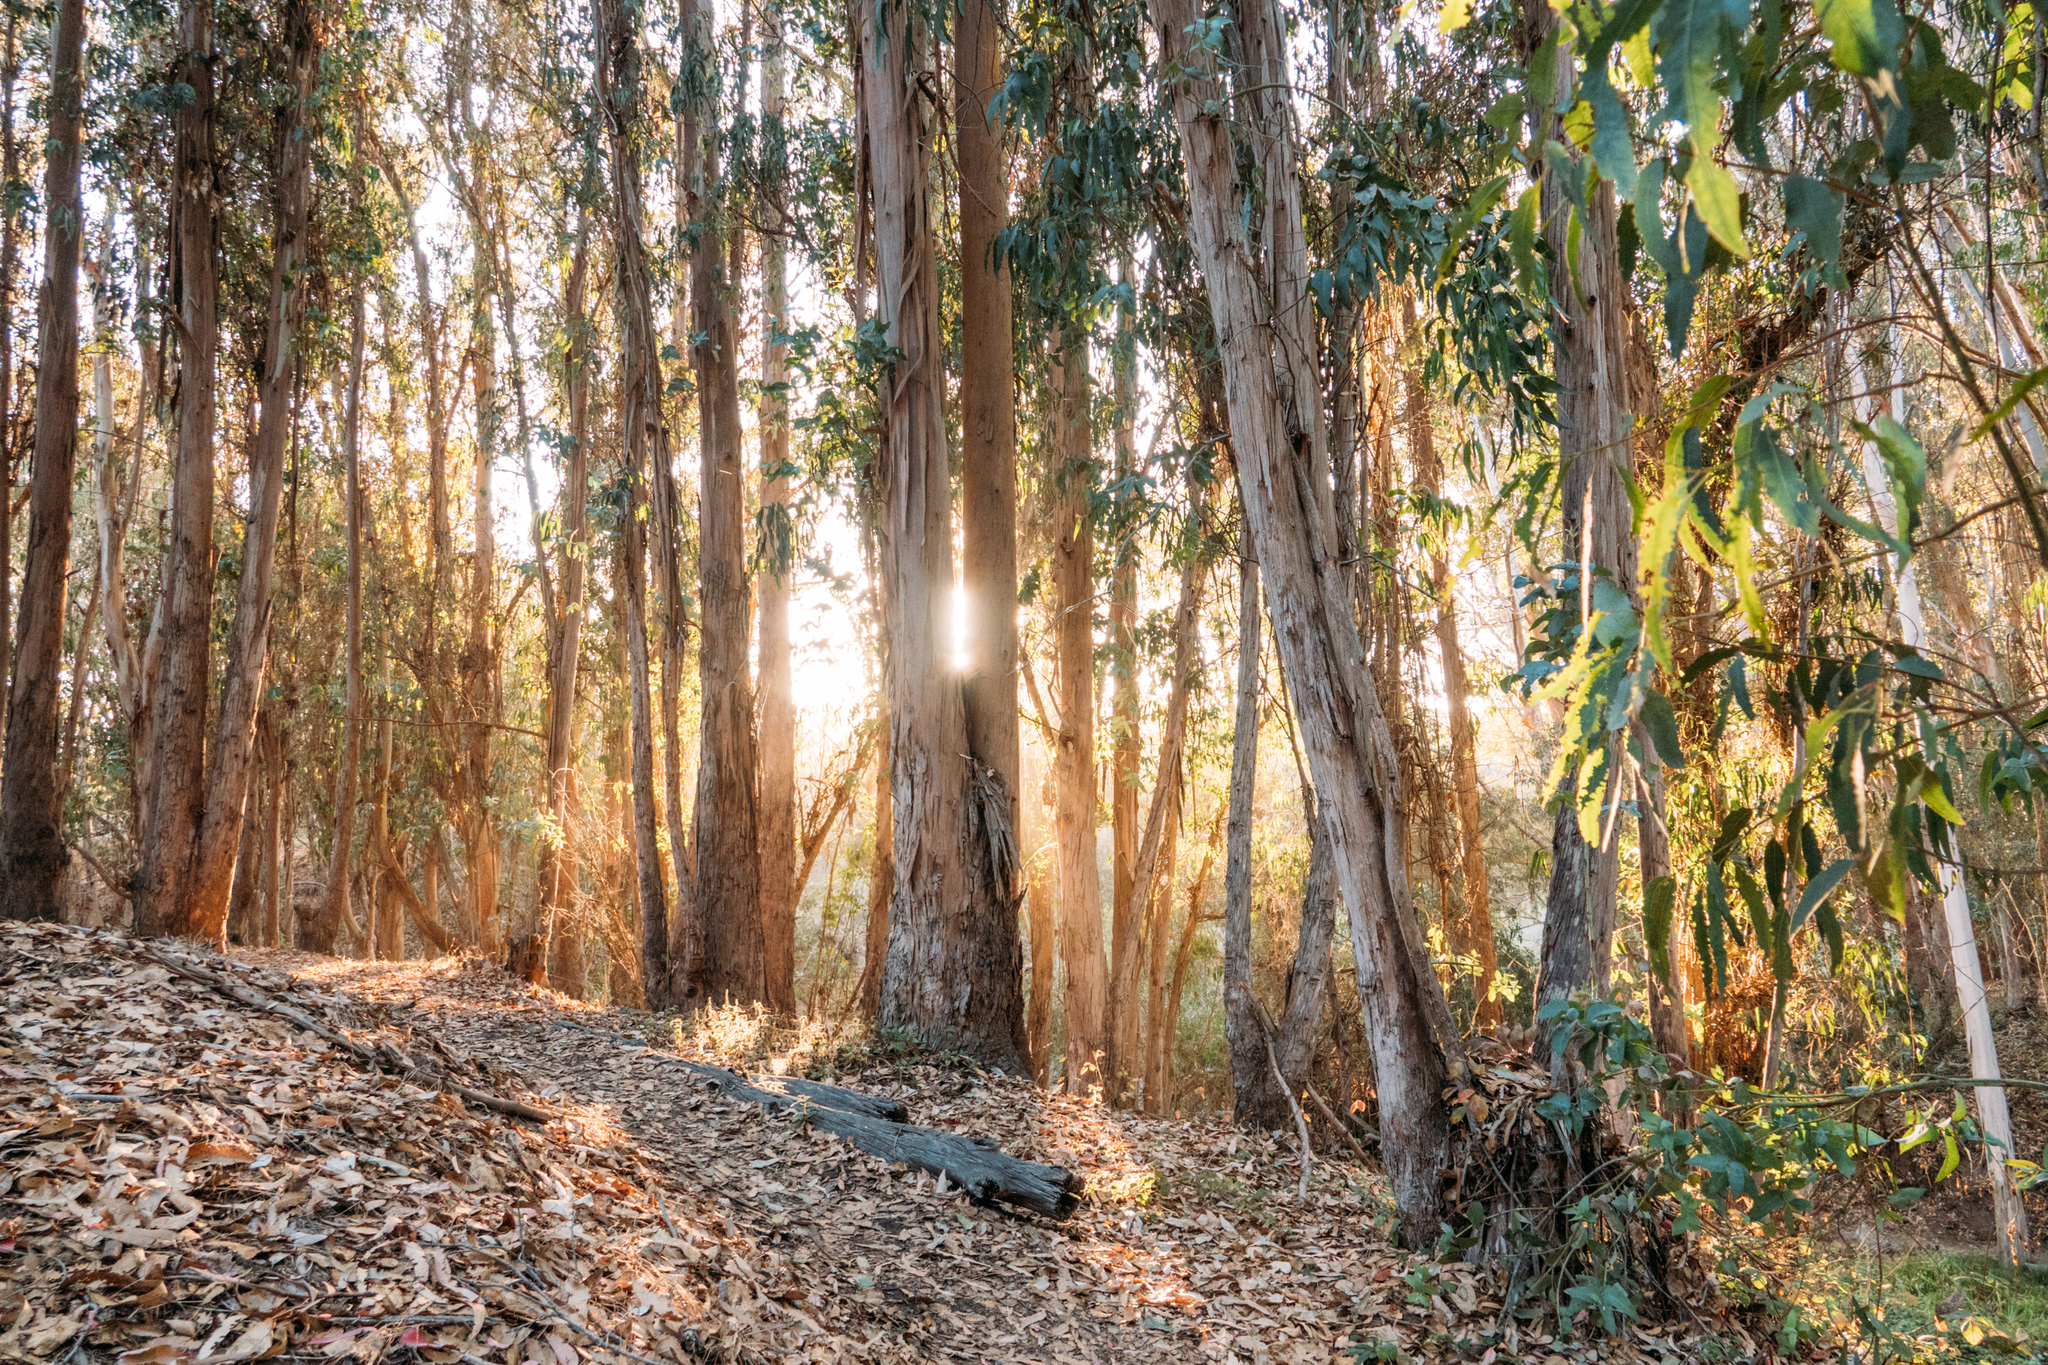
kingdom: Plantae
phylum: Tracheophyta
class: Magnoliopsida
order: Myrtales
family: Myrtaceae
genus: Eucalyptus
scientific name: Eucalyptus globulus
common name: Southern blue-gum
